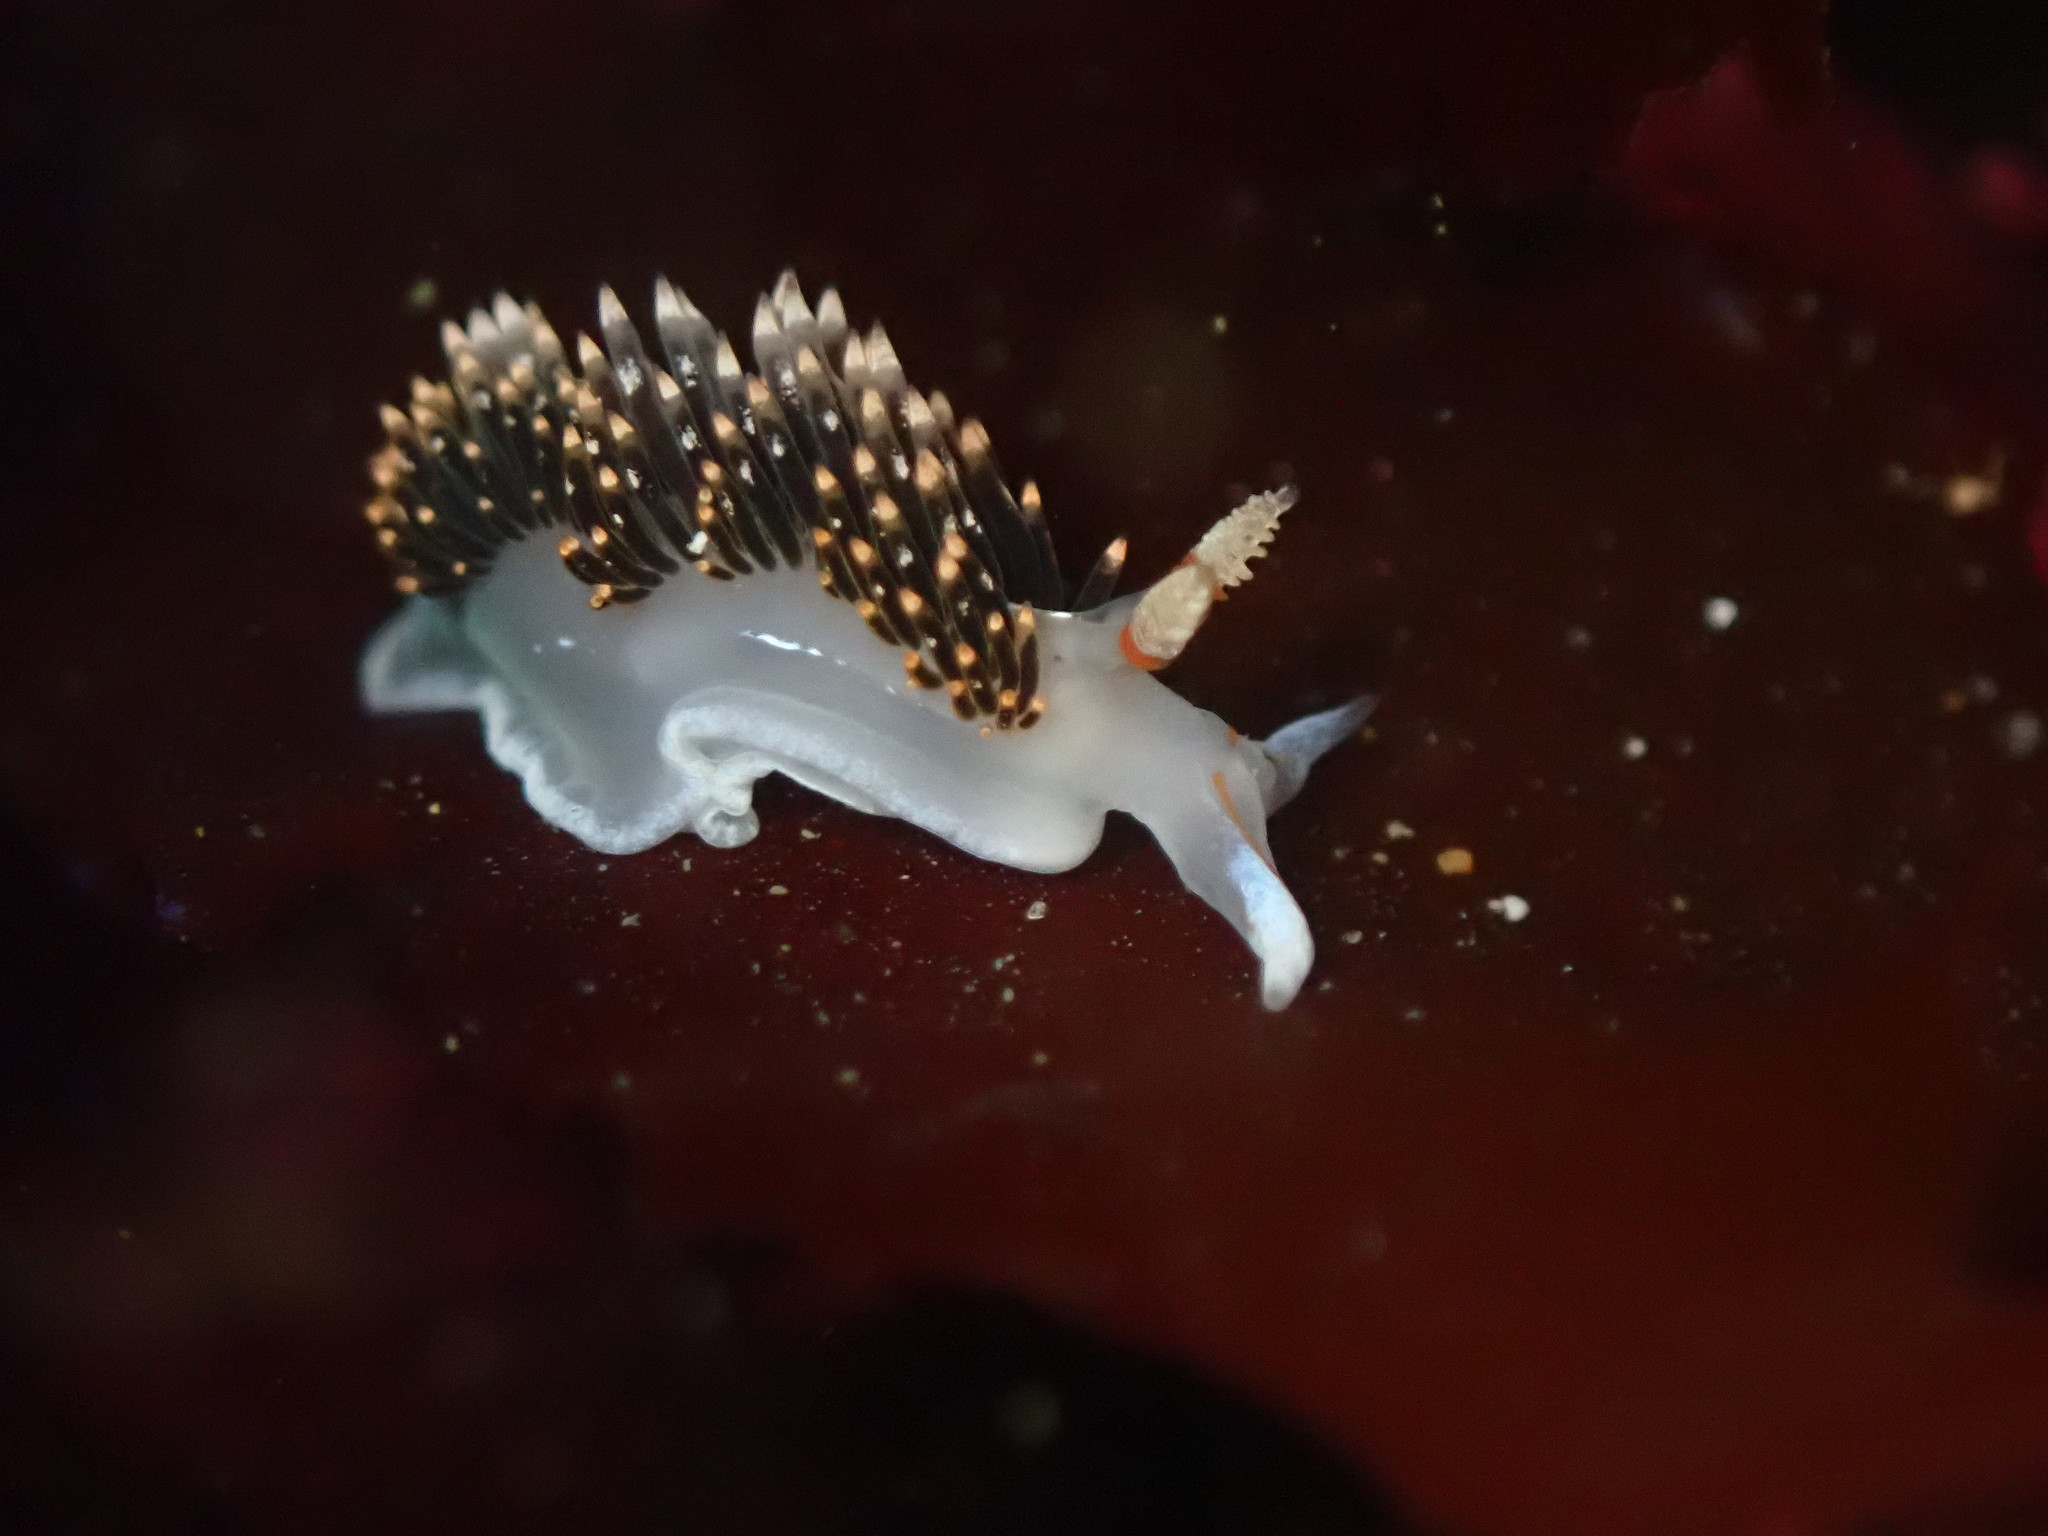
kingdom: Animalia
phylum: Mollusca
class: Gastropoda
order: Nudibranchia
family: Facelinidae
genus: Phidiana
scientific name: Phidiana hiltoni
